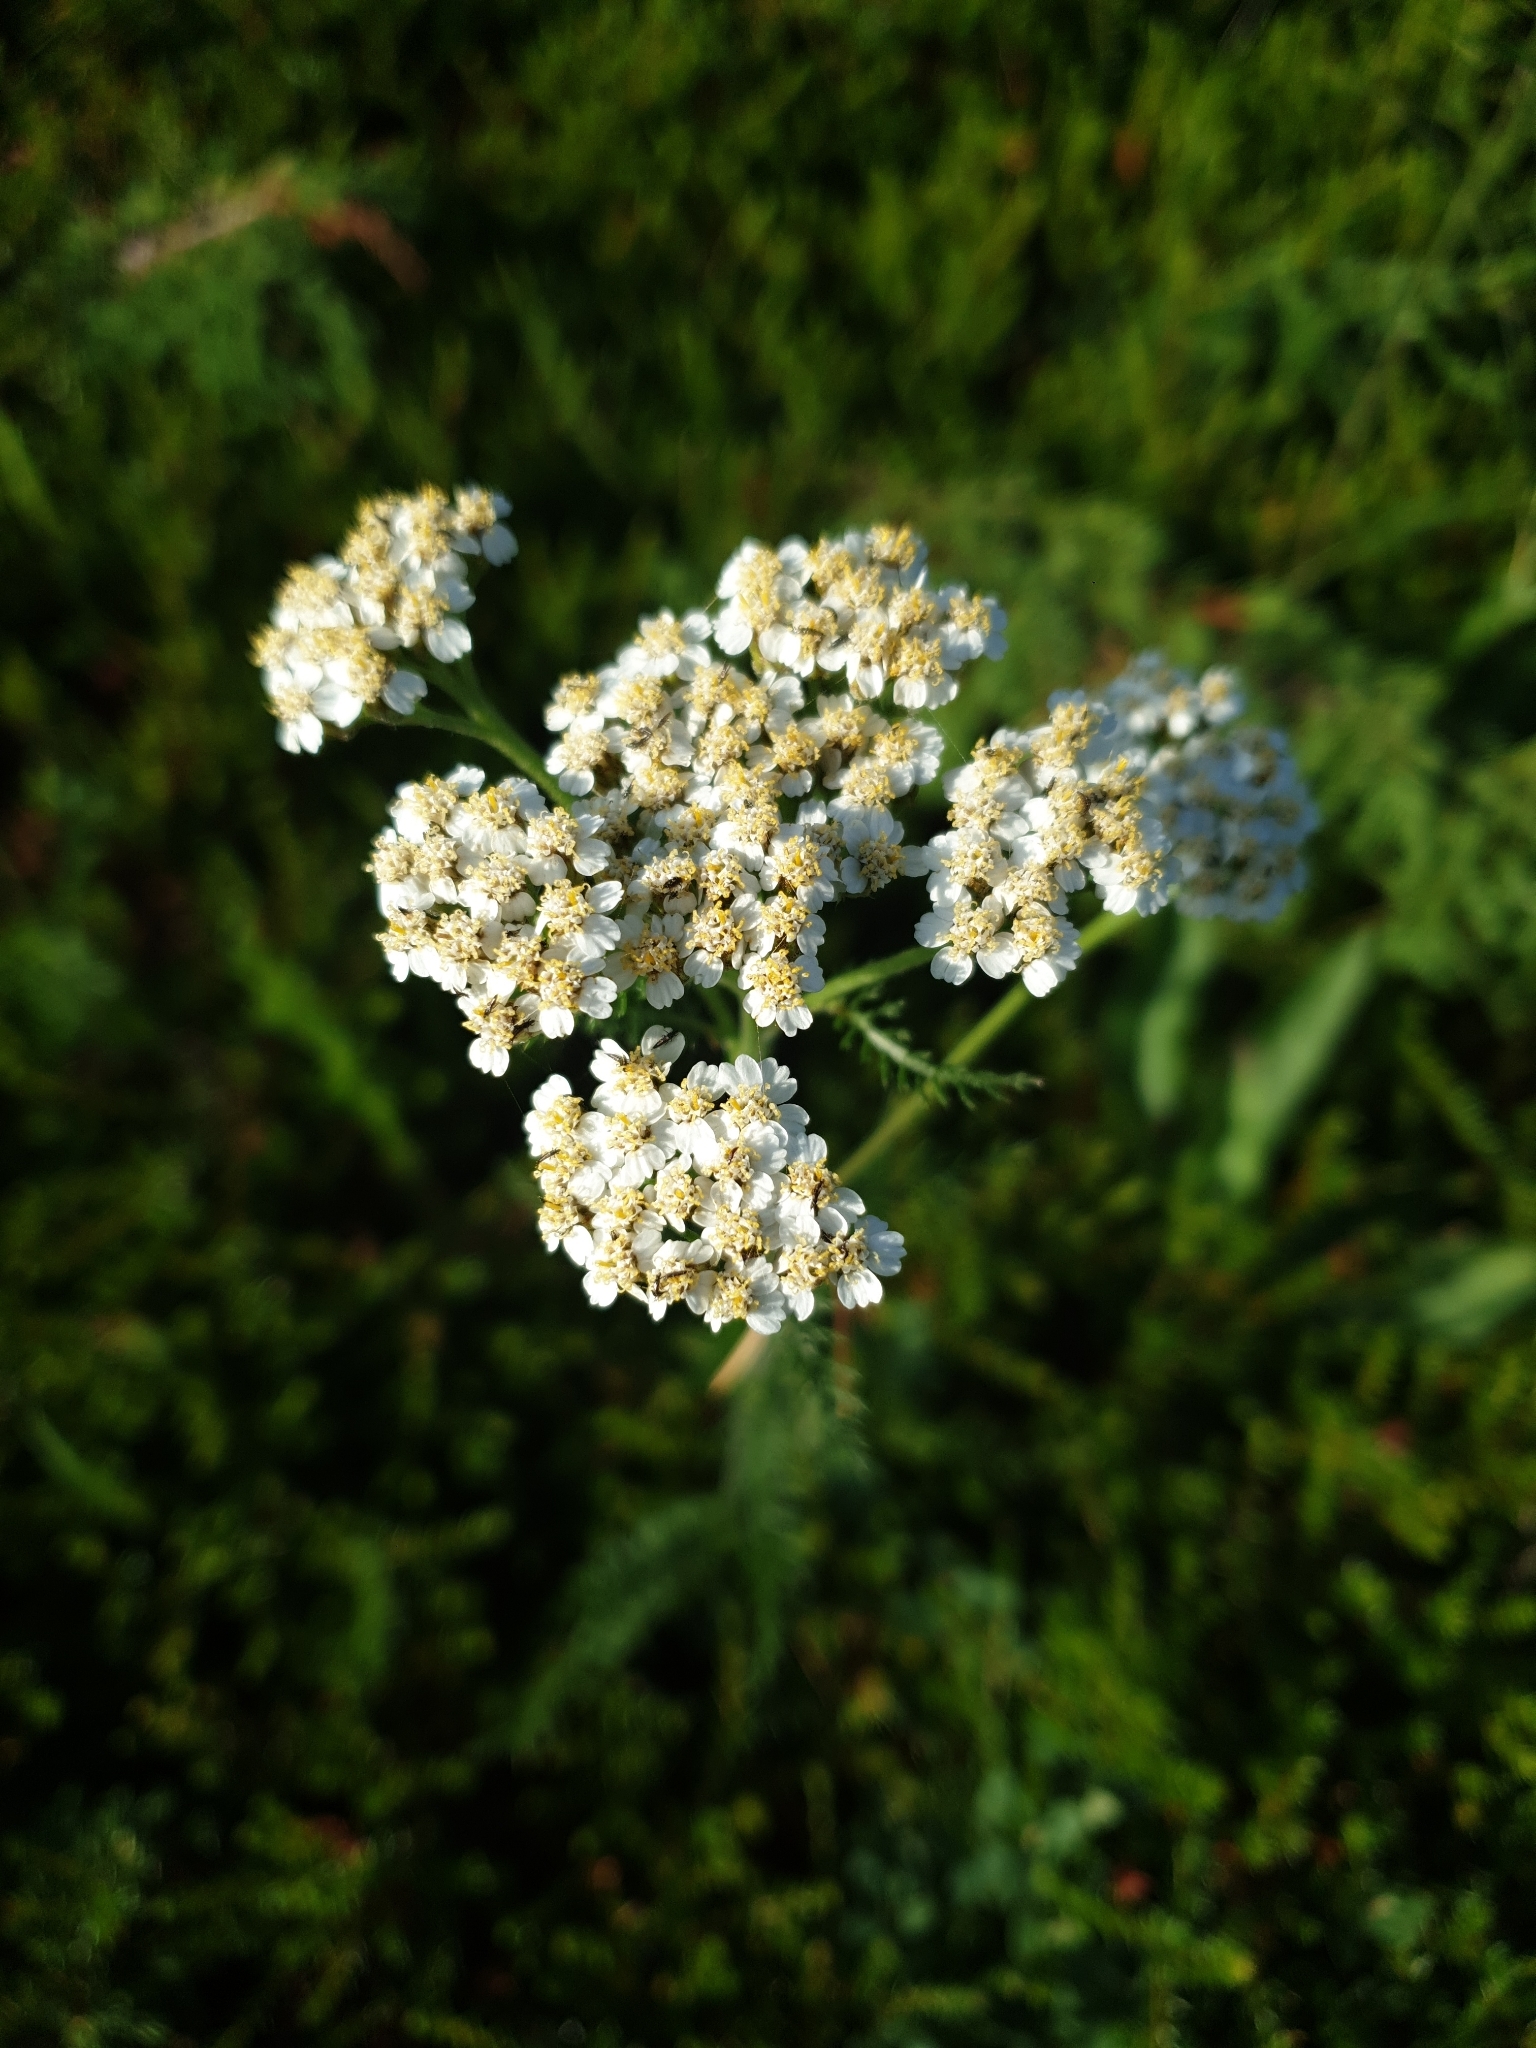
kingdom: Plantae
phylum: Tracheophyta
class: Magnoliopsida
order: Asterales
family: Asteraceae
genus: Achillea
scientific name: Achillea millefolium
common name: Yarrow
